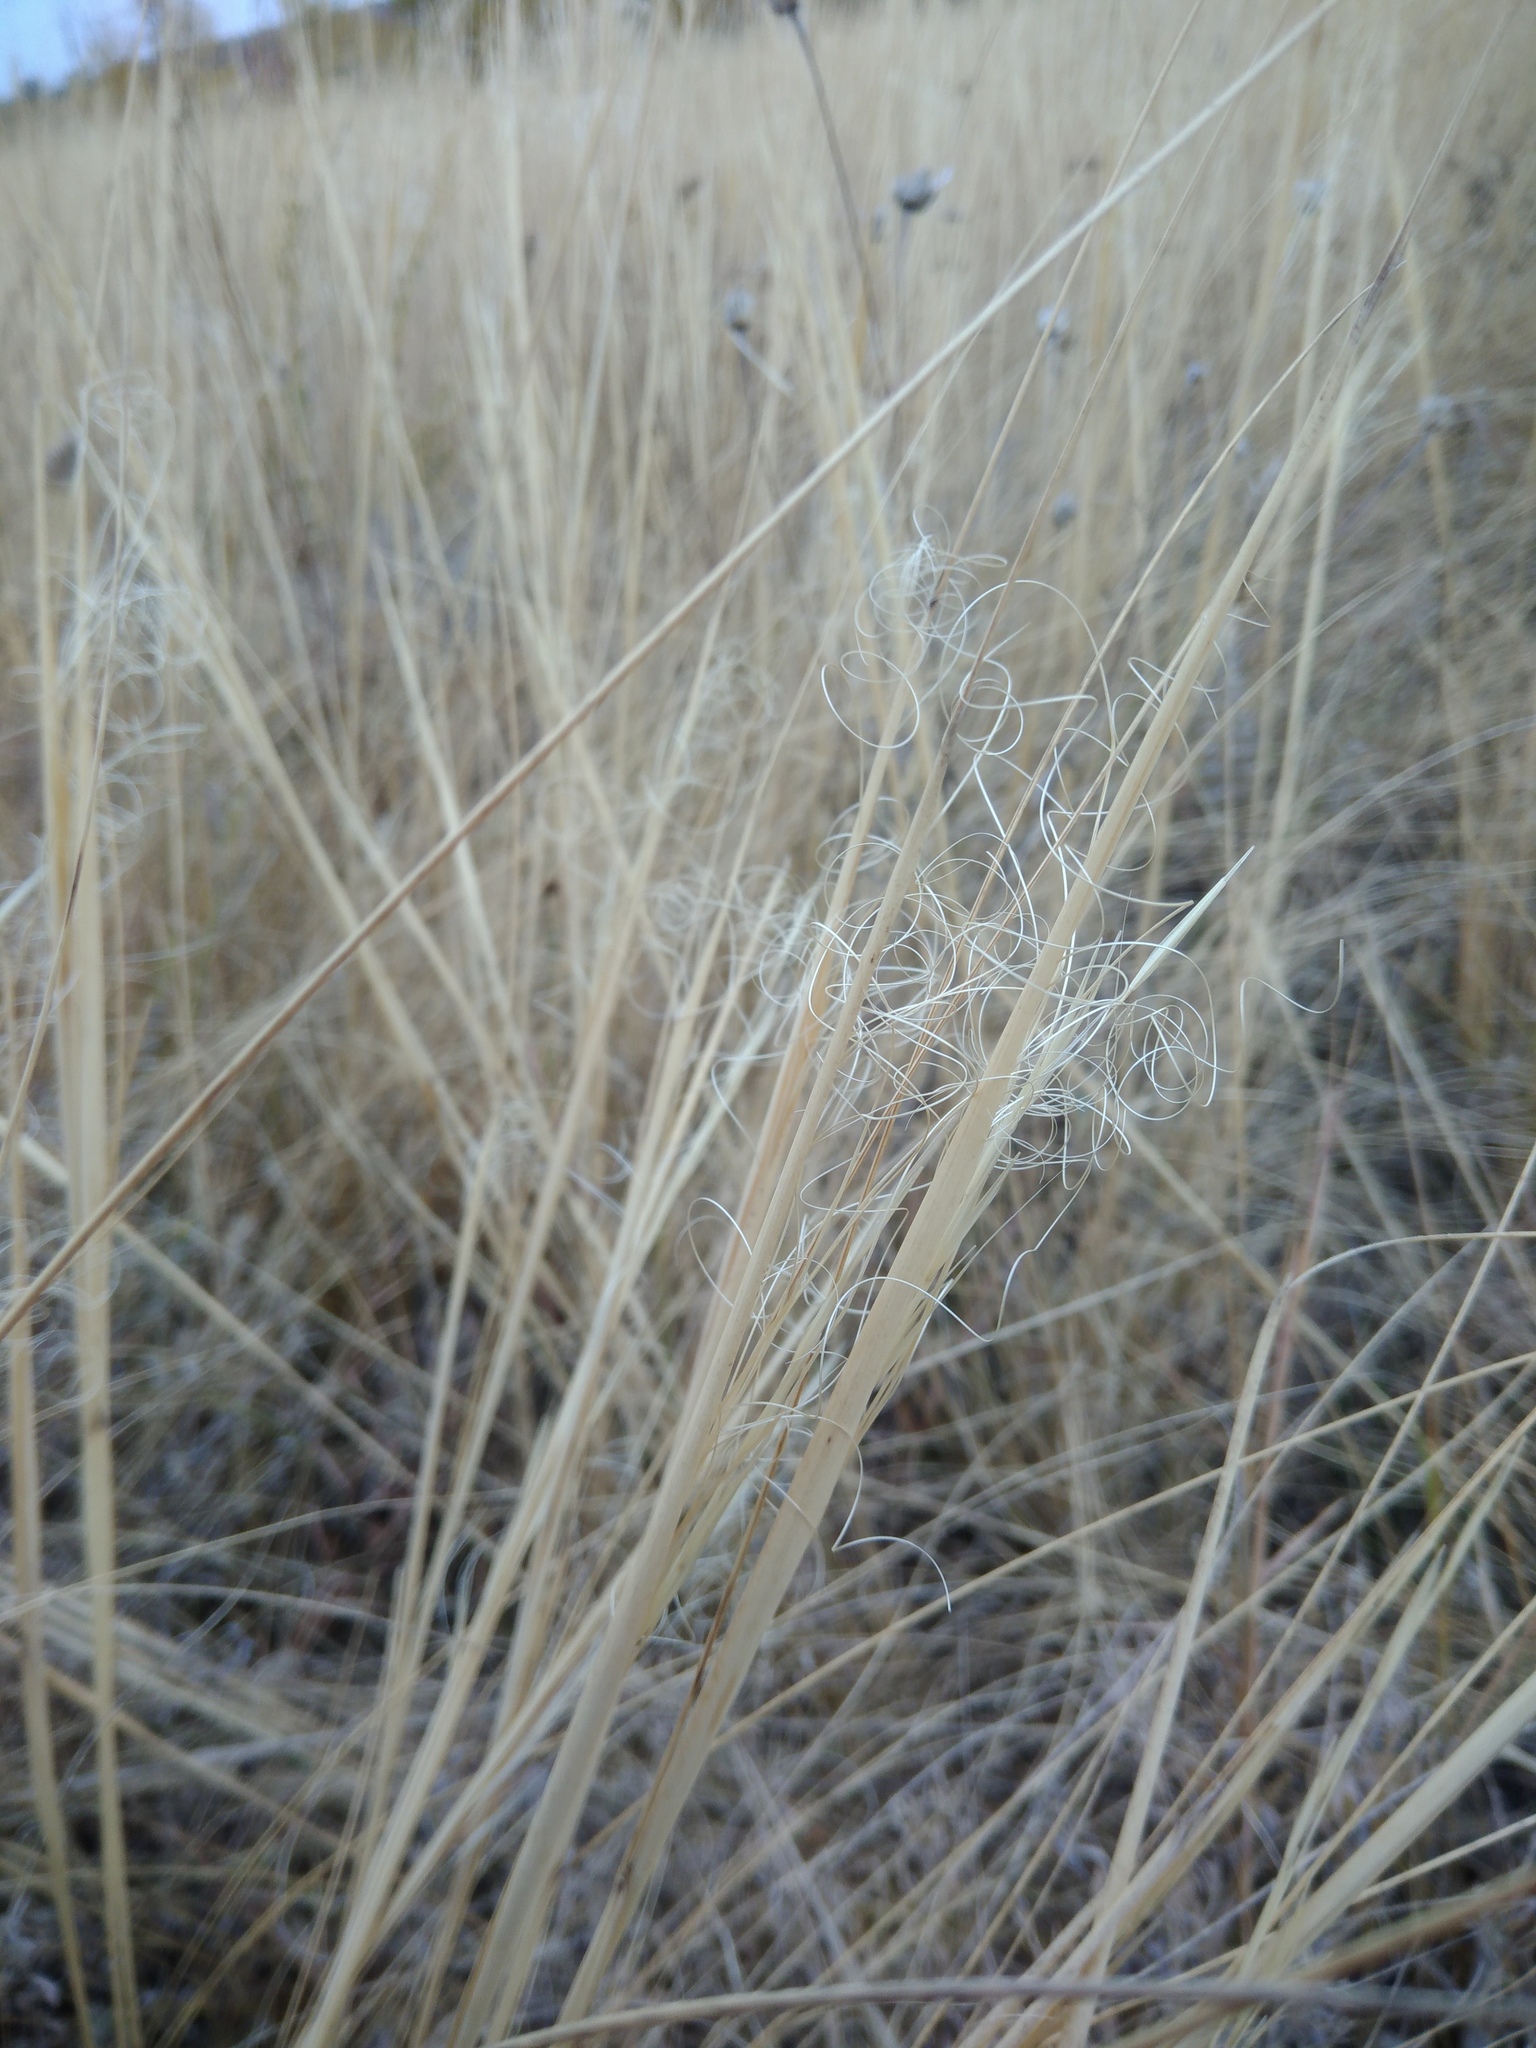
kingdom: Plantae
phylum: Tracheophyta
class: Liliopsida
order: Poales
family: Poaceae
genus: Stipa
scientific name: Stipa capillata
